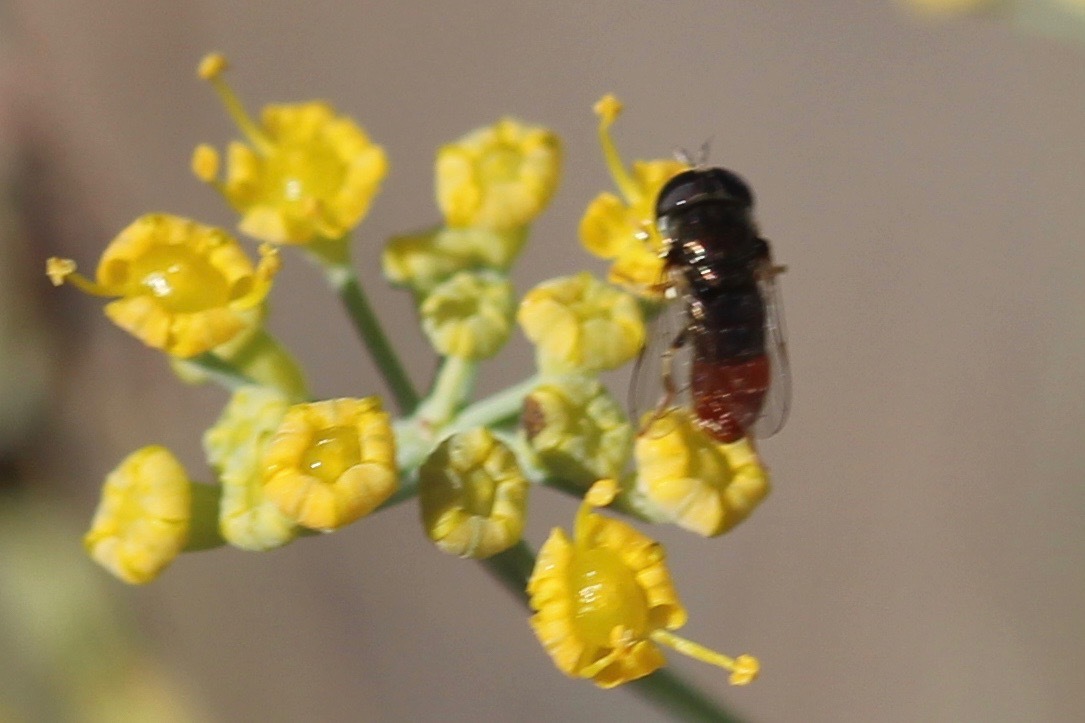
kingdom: Animalia
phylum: Arthropoda
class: Insecta
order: Diptera
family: Syrphidae
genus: Paragus
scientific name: Paragus haemorrhous
